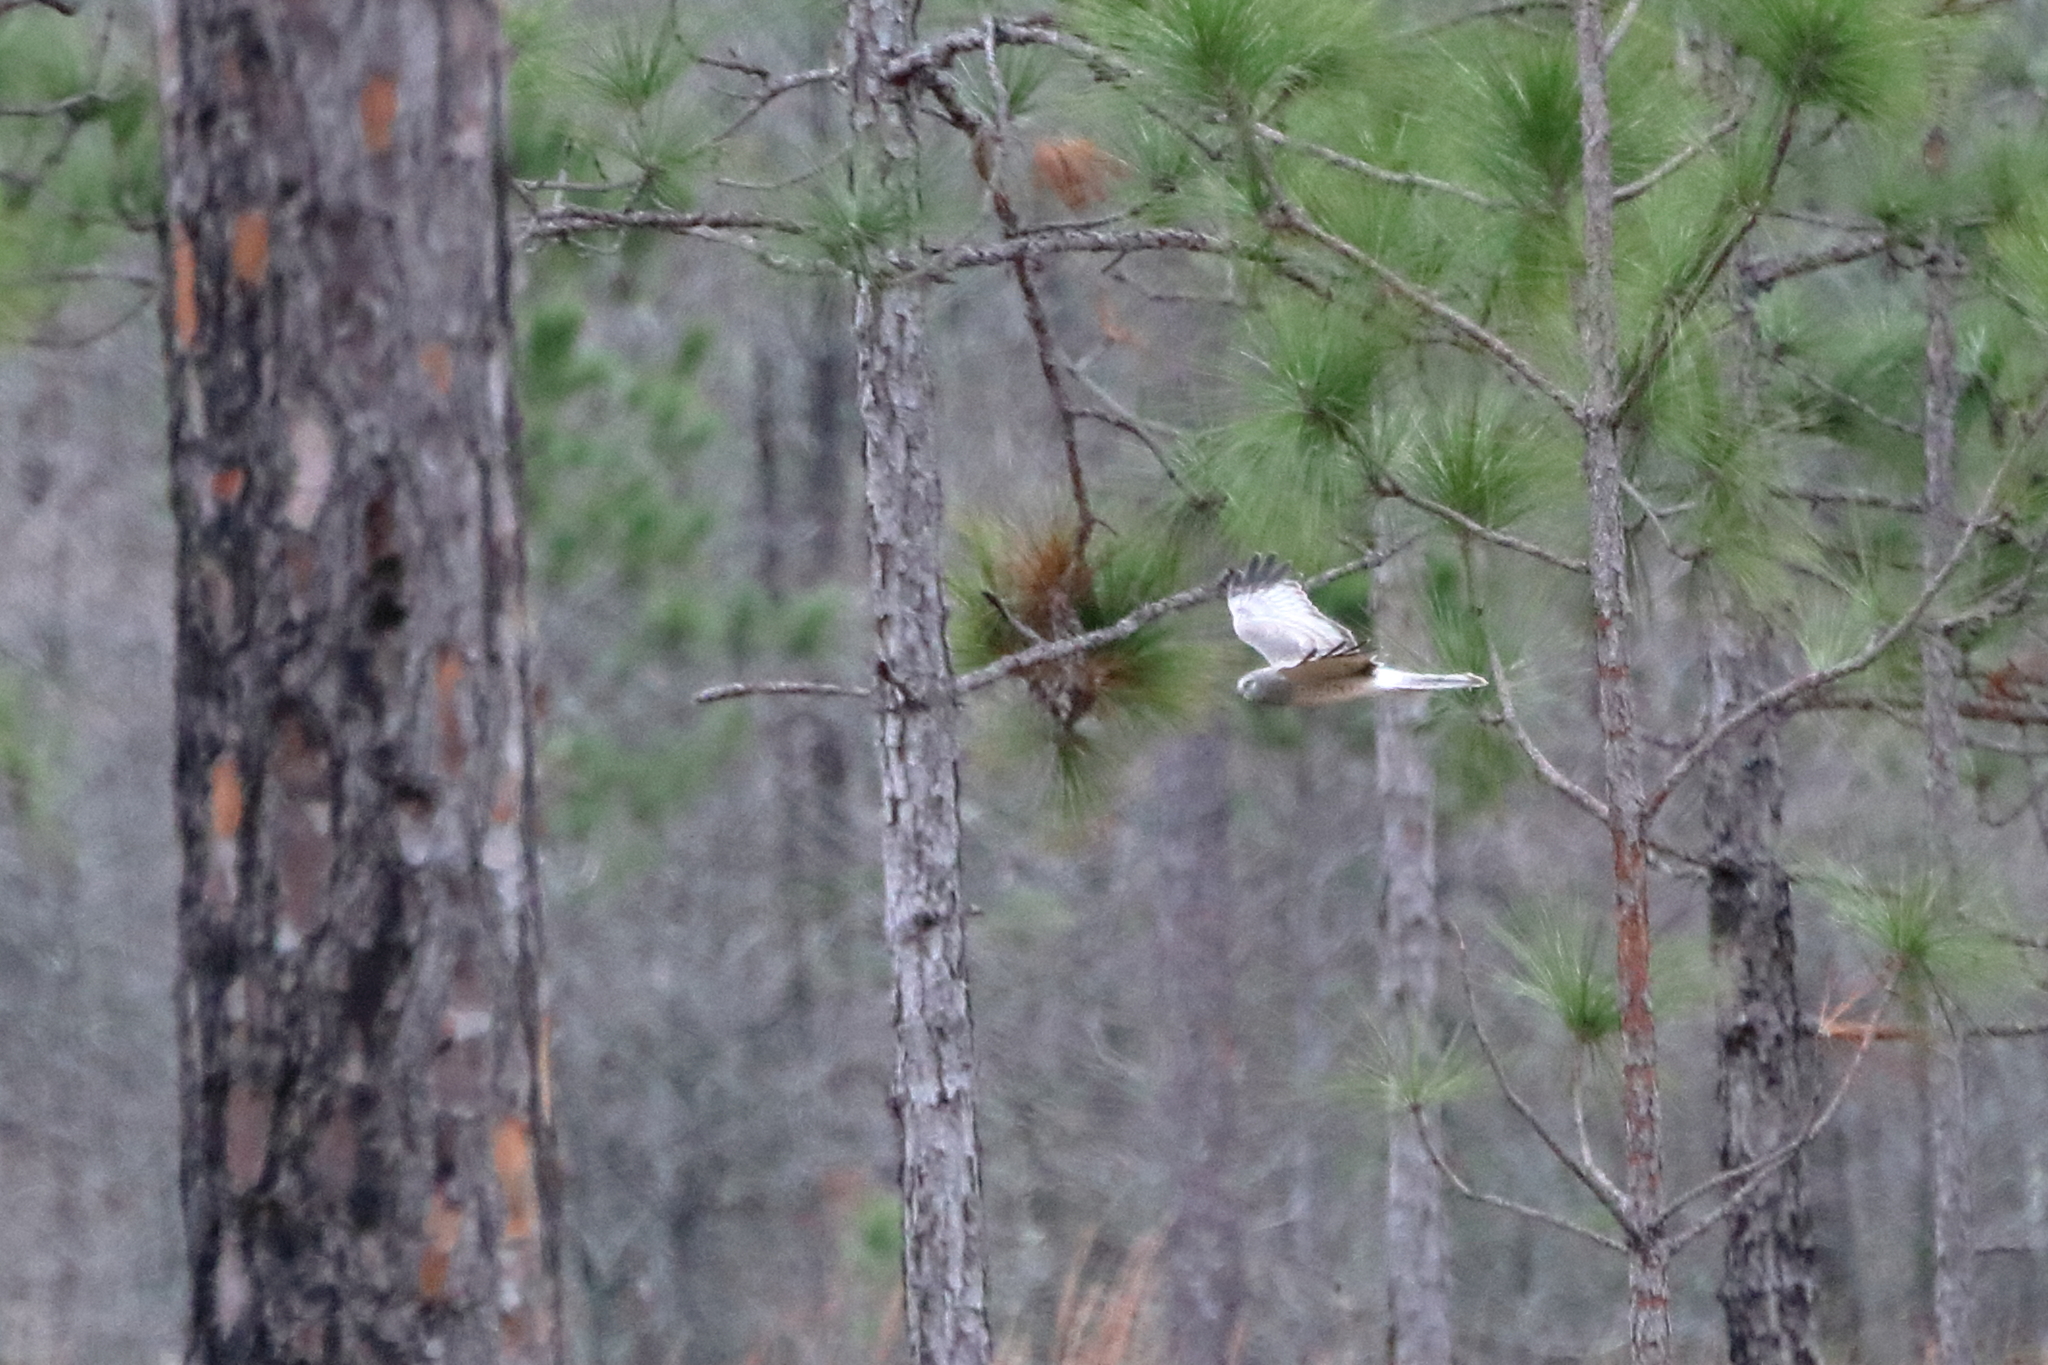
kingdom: Animalia
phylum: Chordata
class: Aves
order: Accipitriformes
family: Accipitridae
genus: Circus
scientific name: Circus cyaneus
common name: Hen harrier
